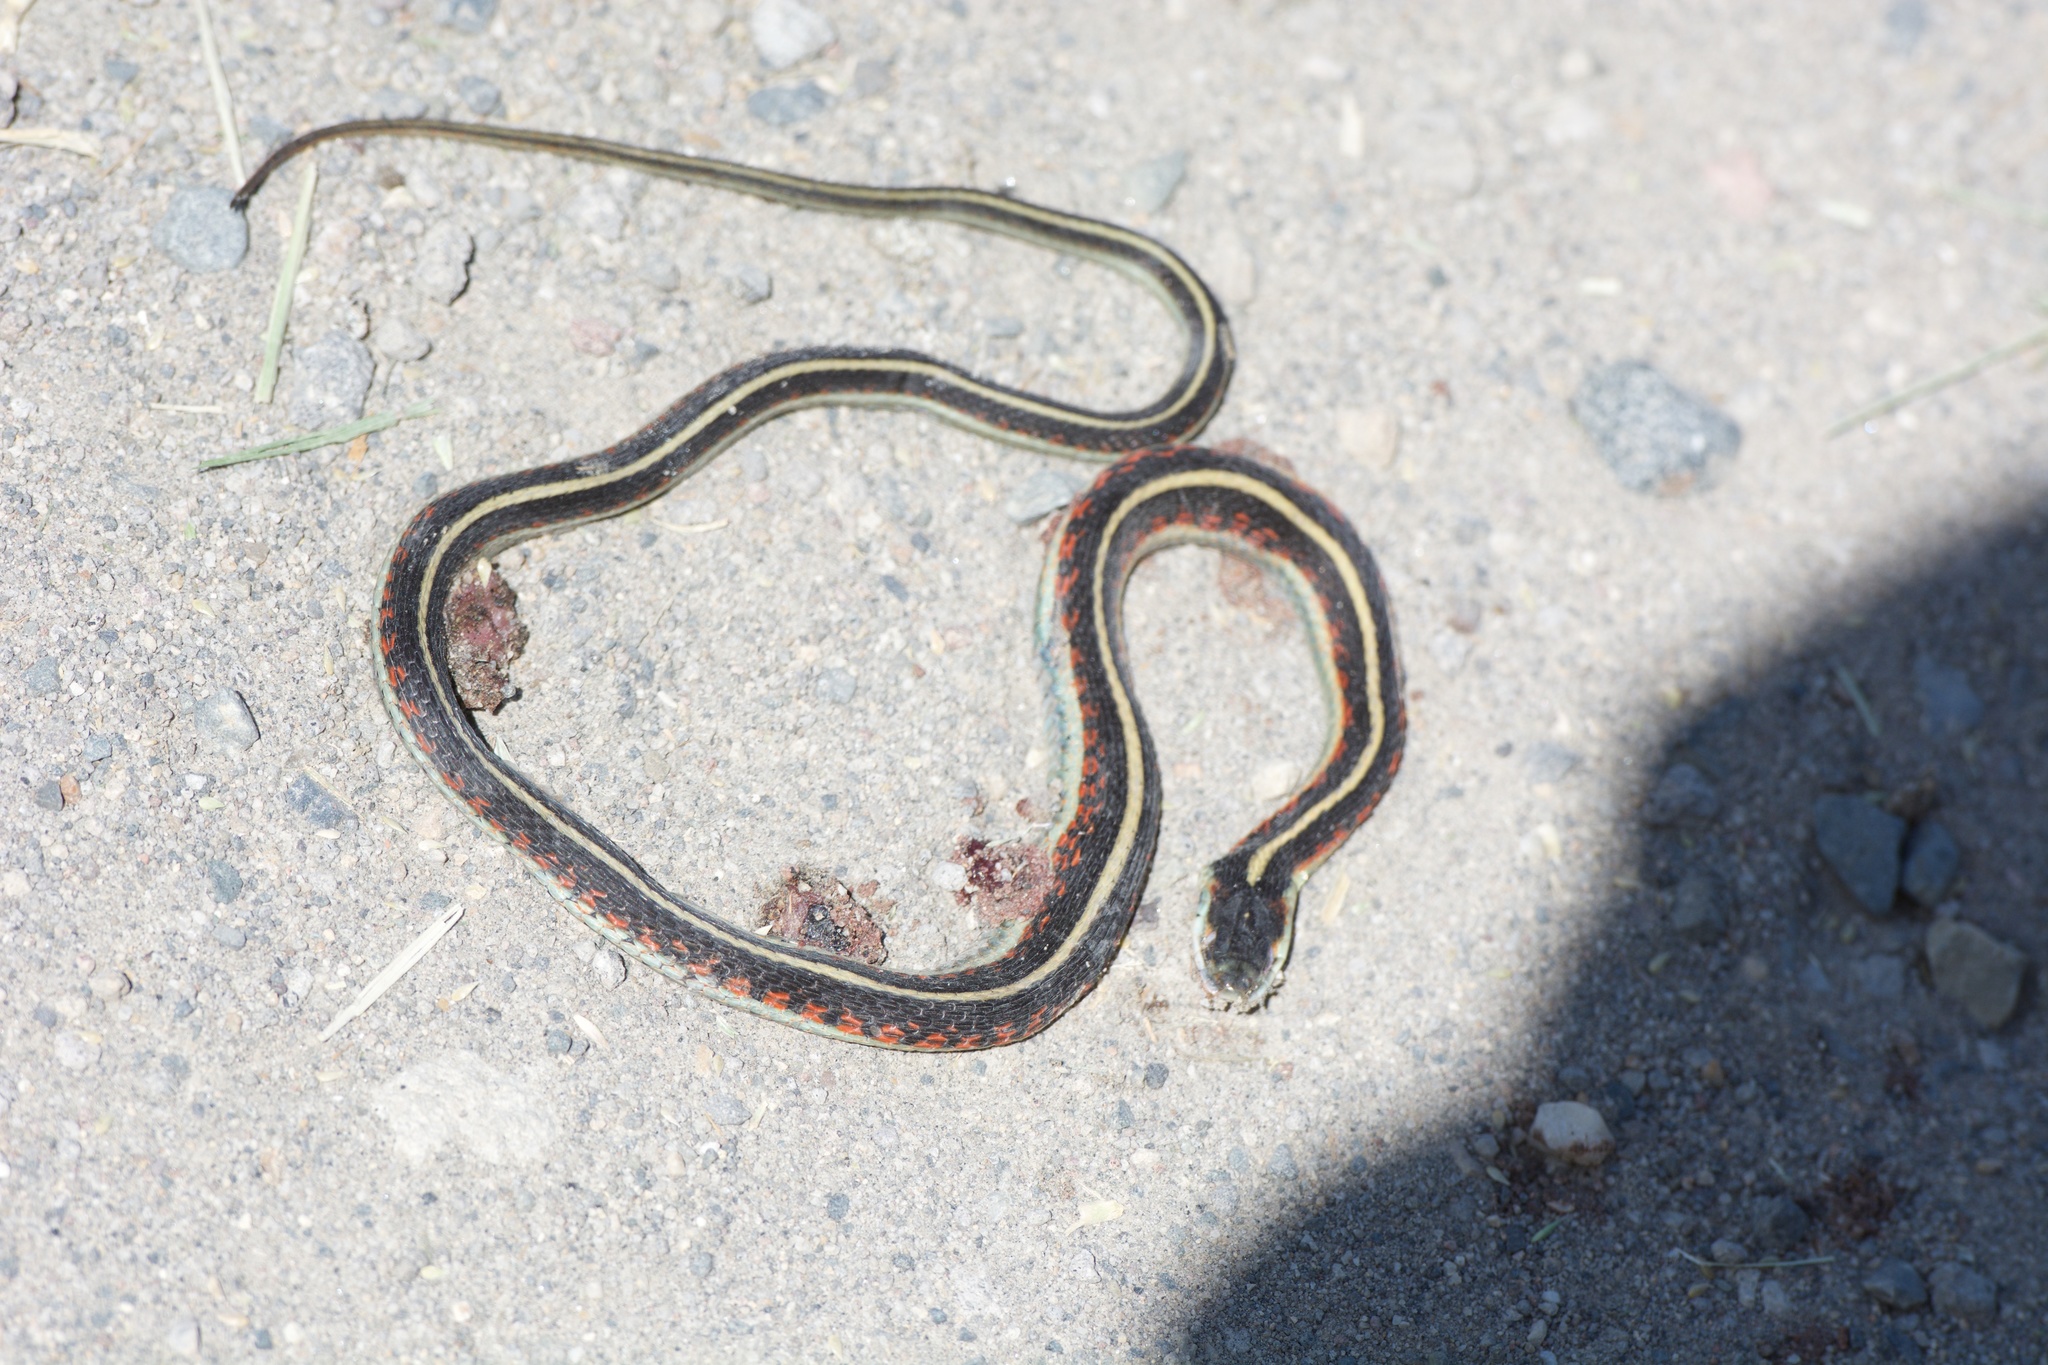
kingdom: Animalia
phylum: Chordata
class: Squamata
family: Colubridae
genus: Thamnophis
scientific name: Thamnophis sirtalis
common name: Common garter snake
